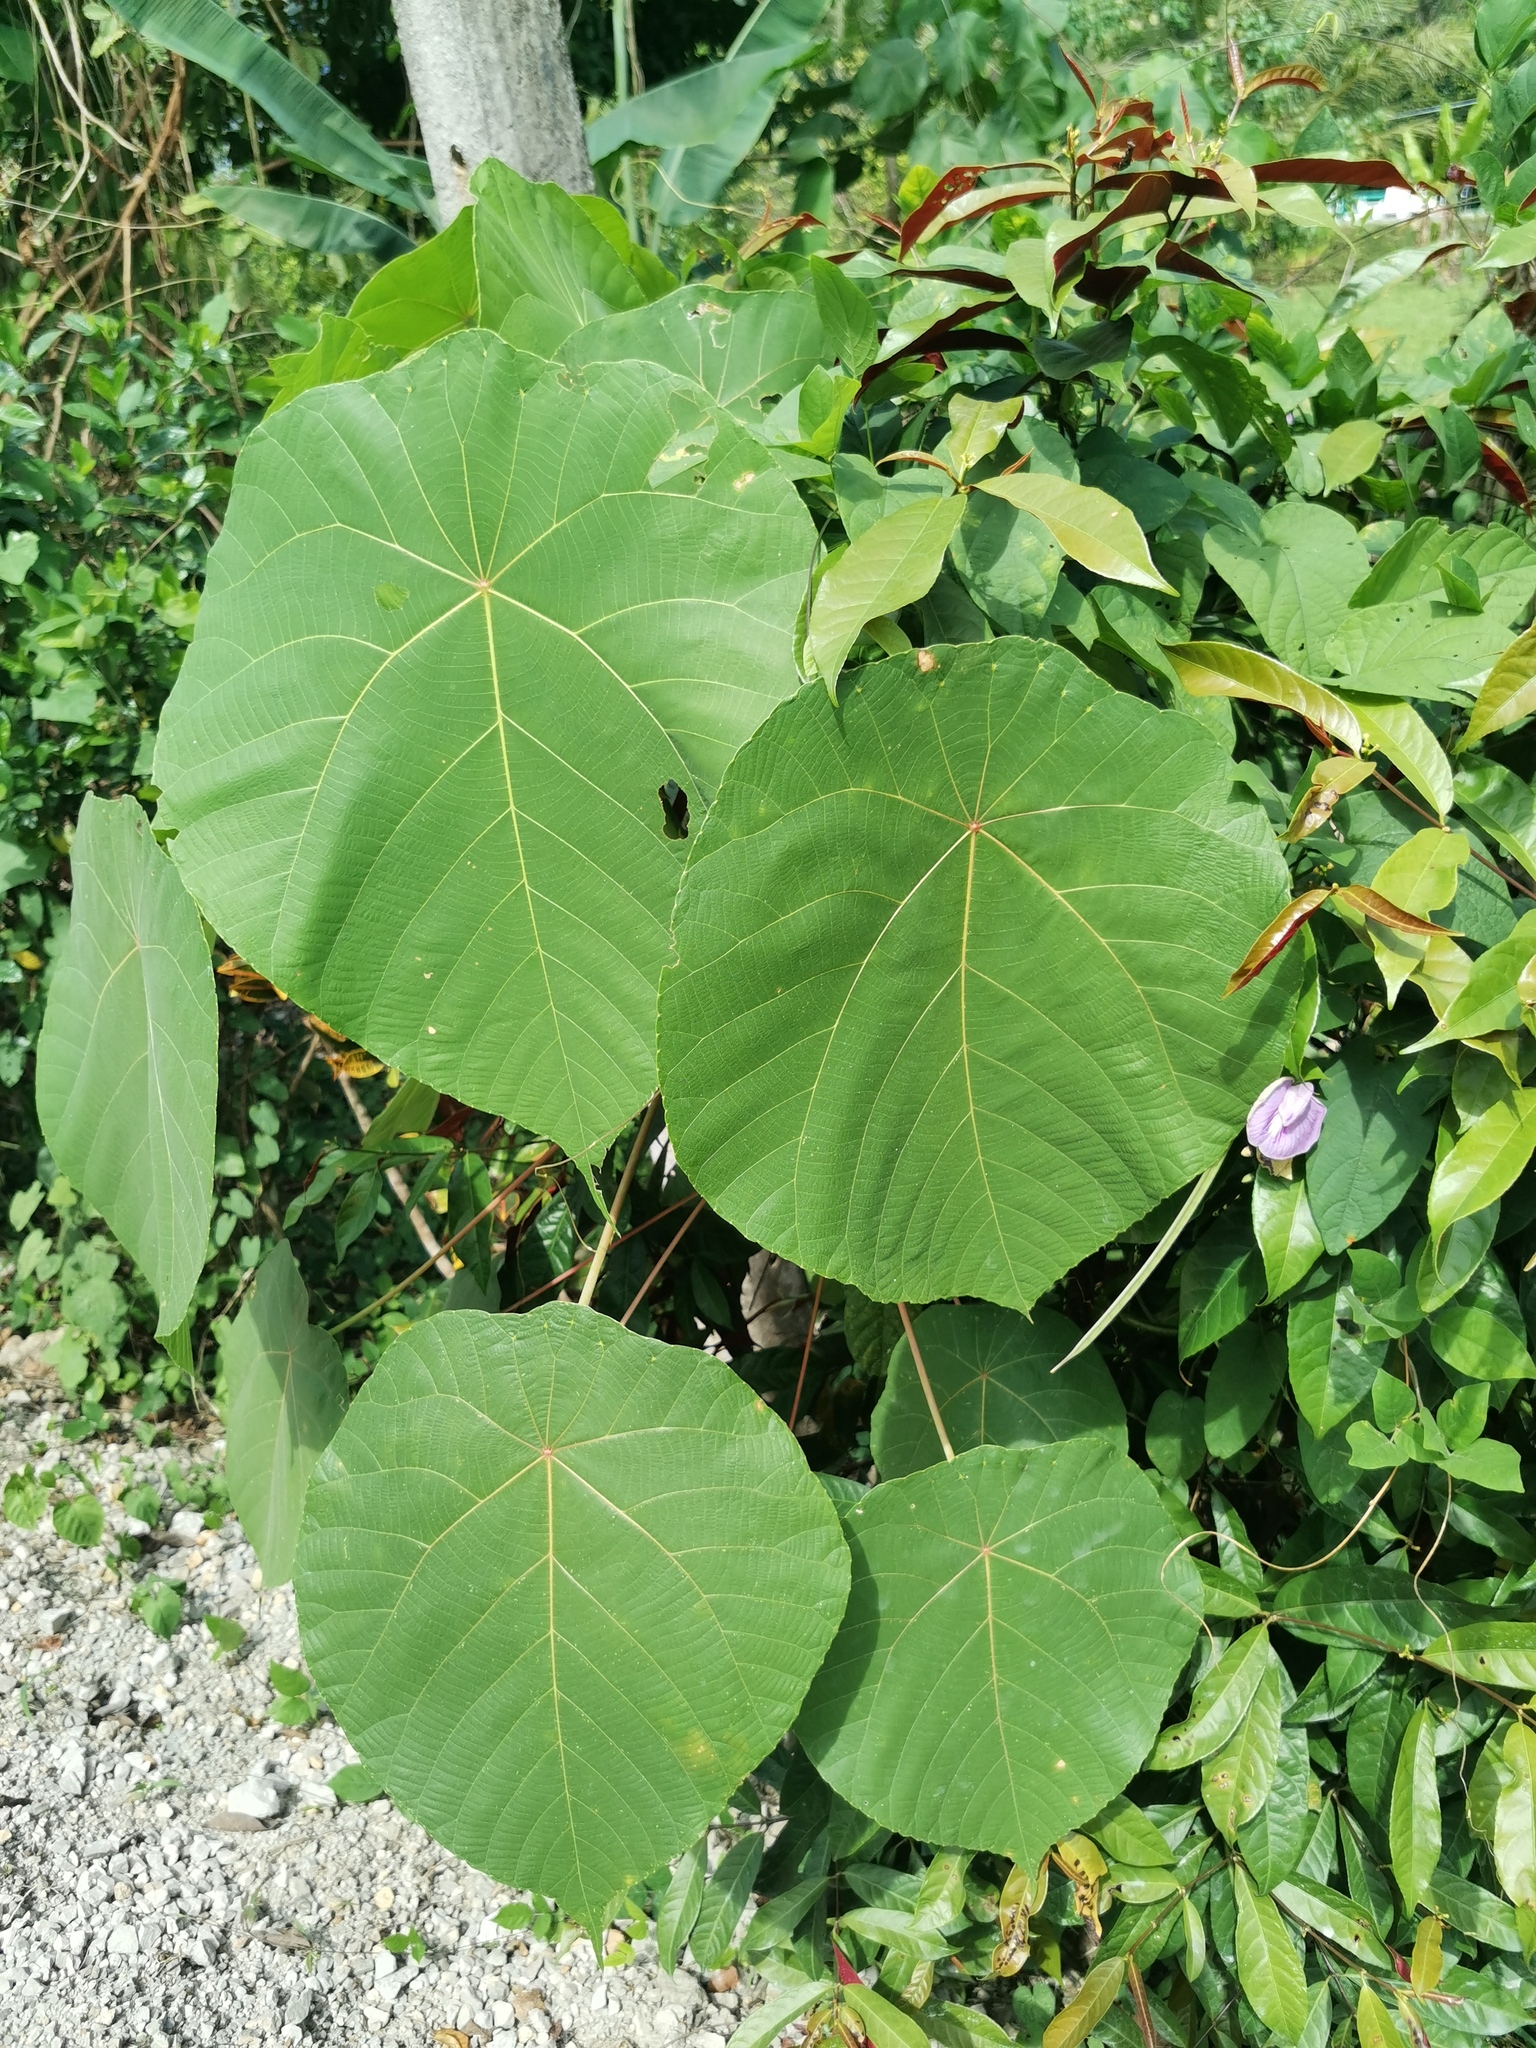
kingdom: Plantae
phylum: Tracheophyta
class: Magnoliopsida
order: Malpighiales
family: Euphorbiaceae
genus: Macaranga
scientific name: Macaranga tanarius
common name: Parasol leaf tree
